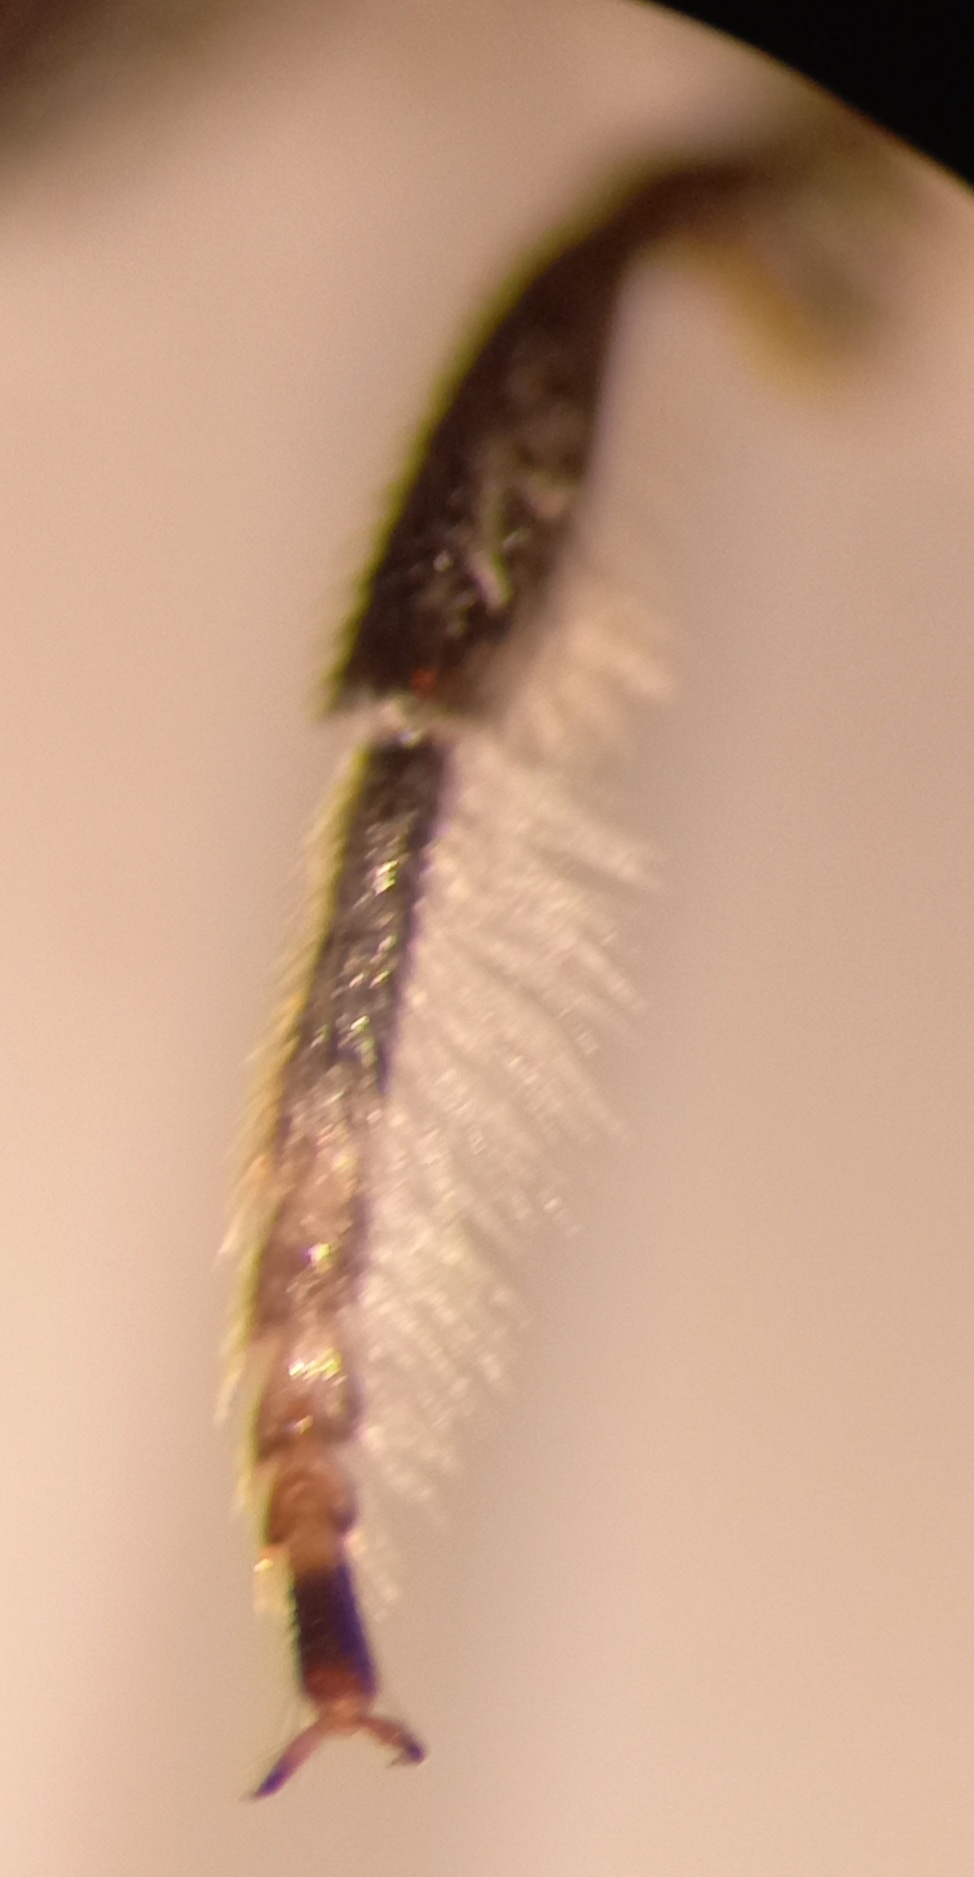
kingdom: Animalia
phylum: Arthropoda
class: Insecta
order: Hymenoptera
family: Megachilidae
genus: Megachile
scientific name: Megachile pilidens
